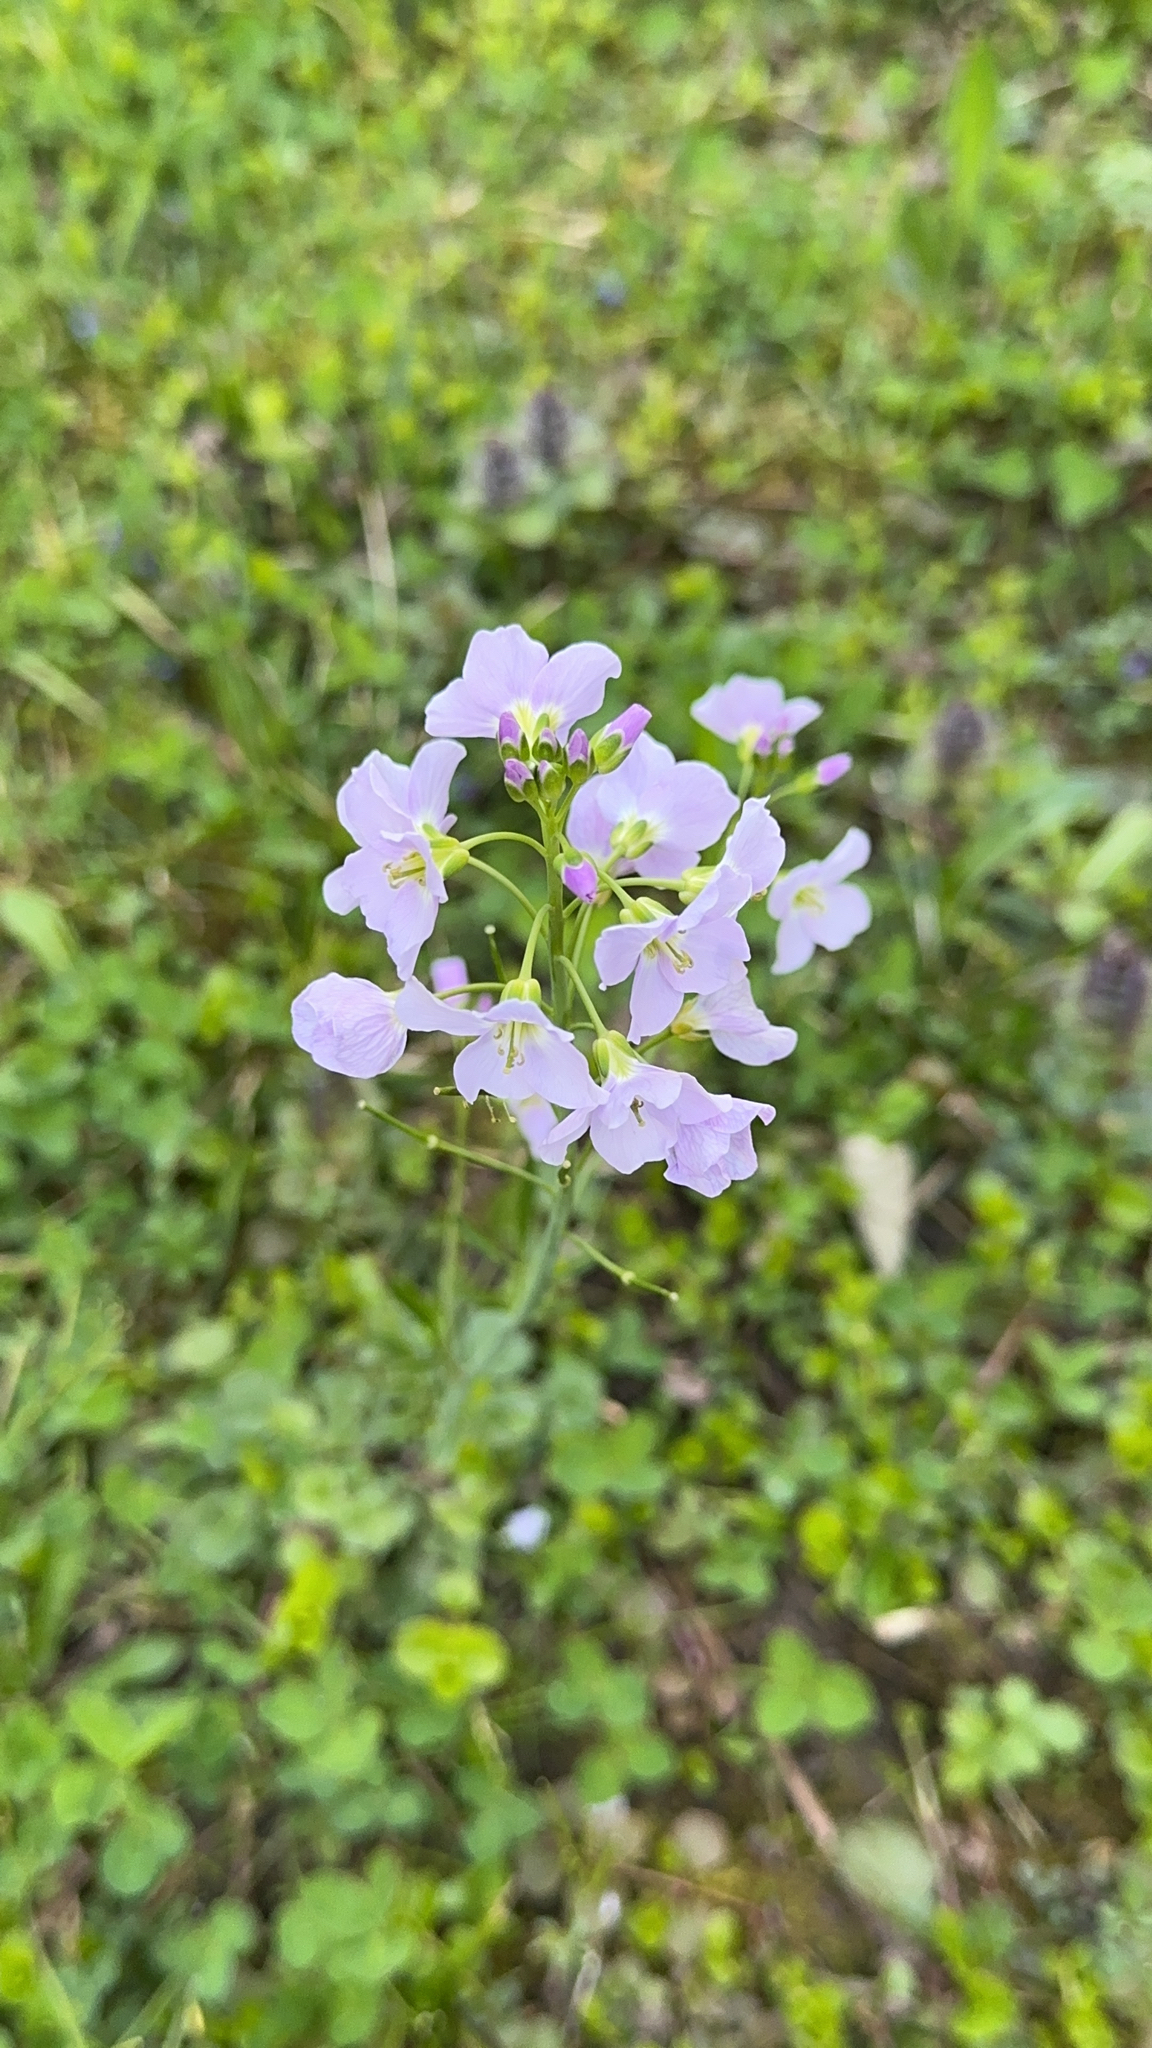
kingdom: Plantae
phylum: Tracheophyta
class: Magnoliopsida
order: Brassicales
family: Brassicaceae
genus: Cardamine
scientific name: Cardamine pratensis
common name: Cuckoo flower
